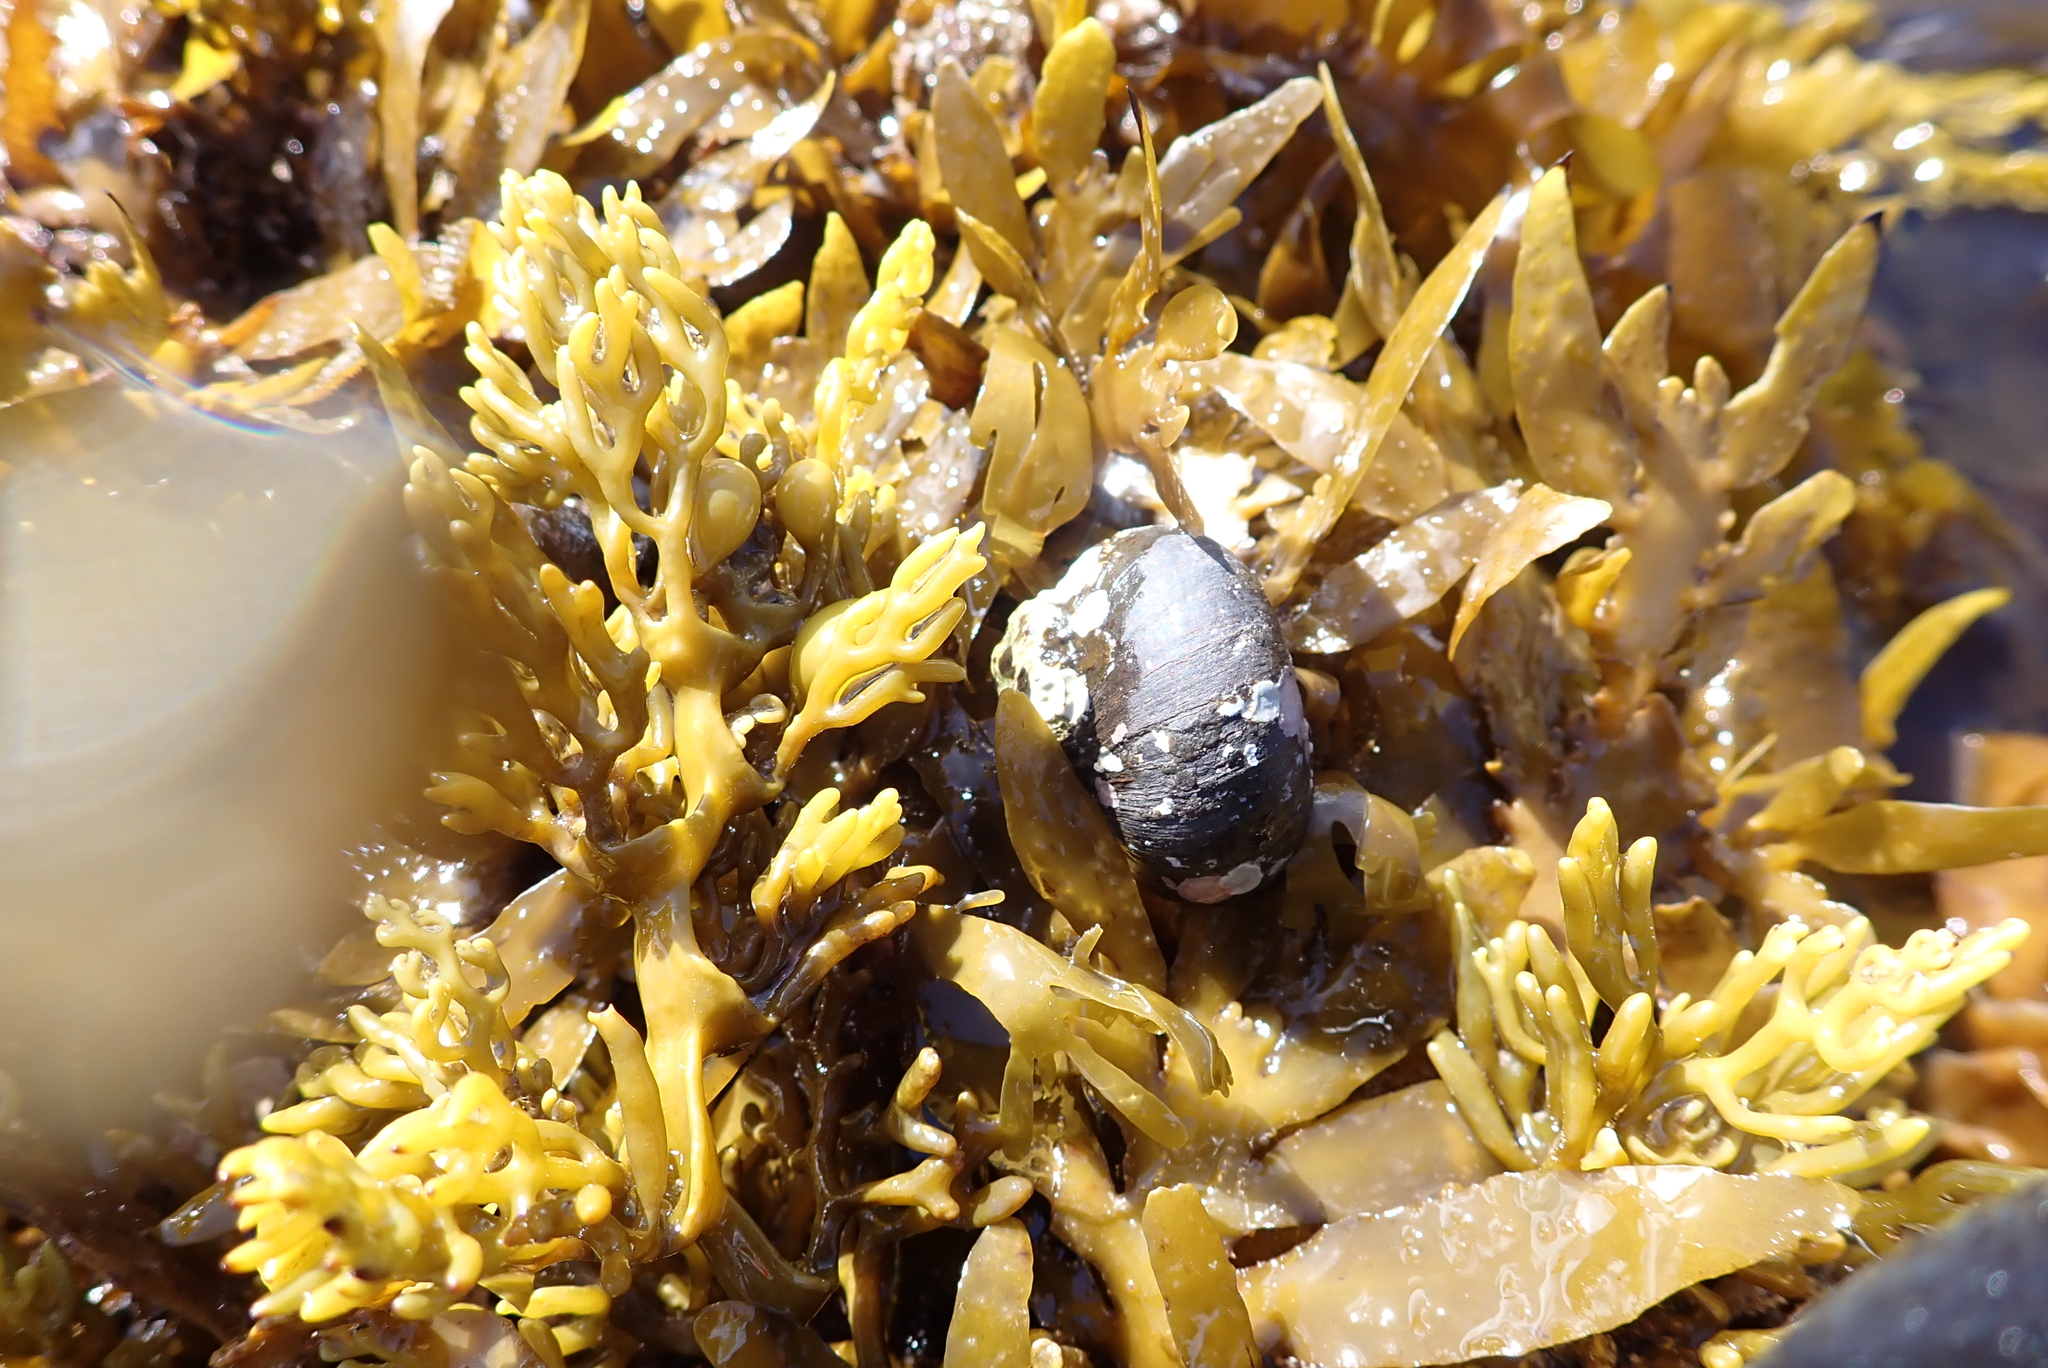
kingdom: Animalia
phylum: Mollusca
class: Gastropoda
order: Trochida
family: Turbinidae
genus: Lunella
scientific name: Lunella smaragda
